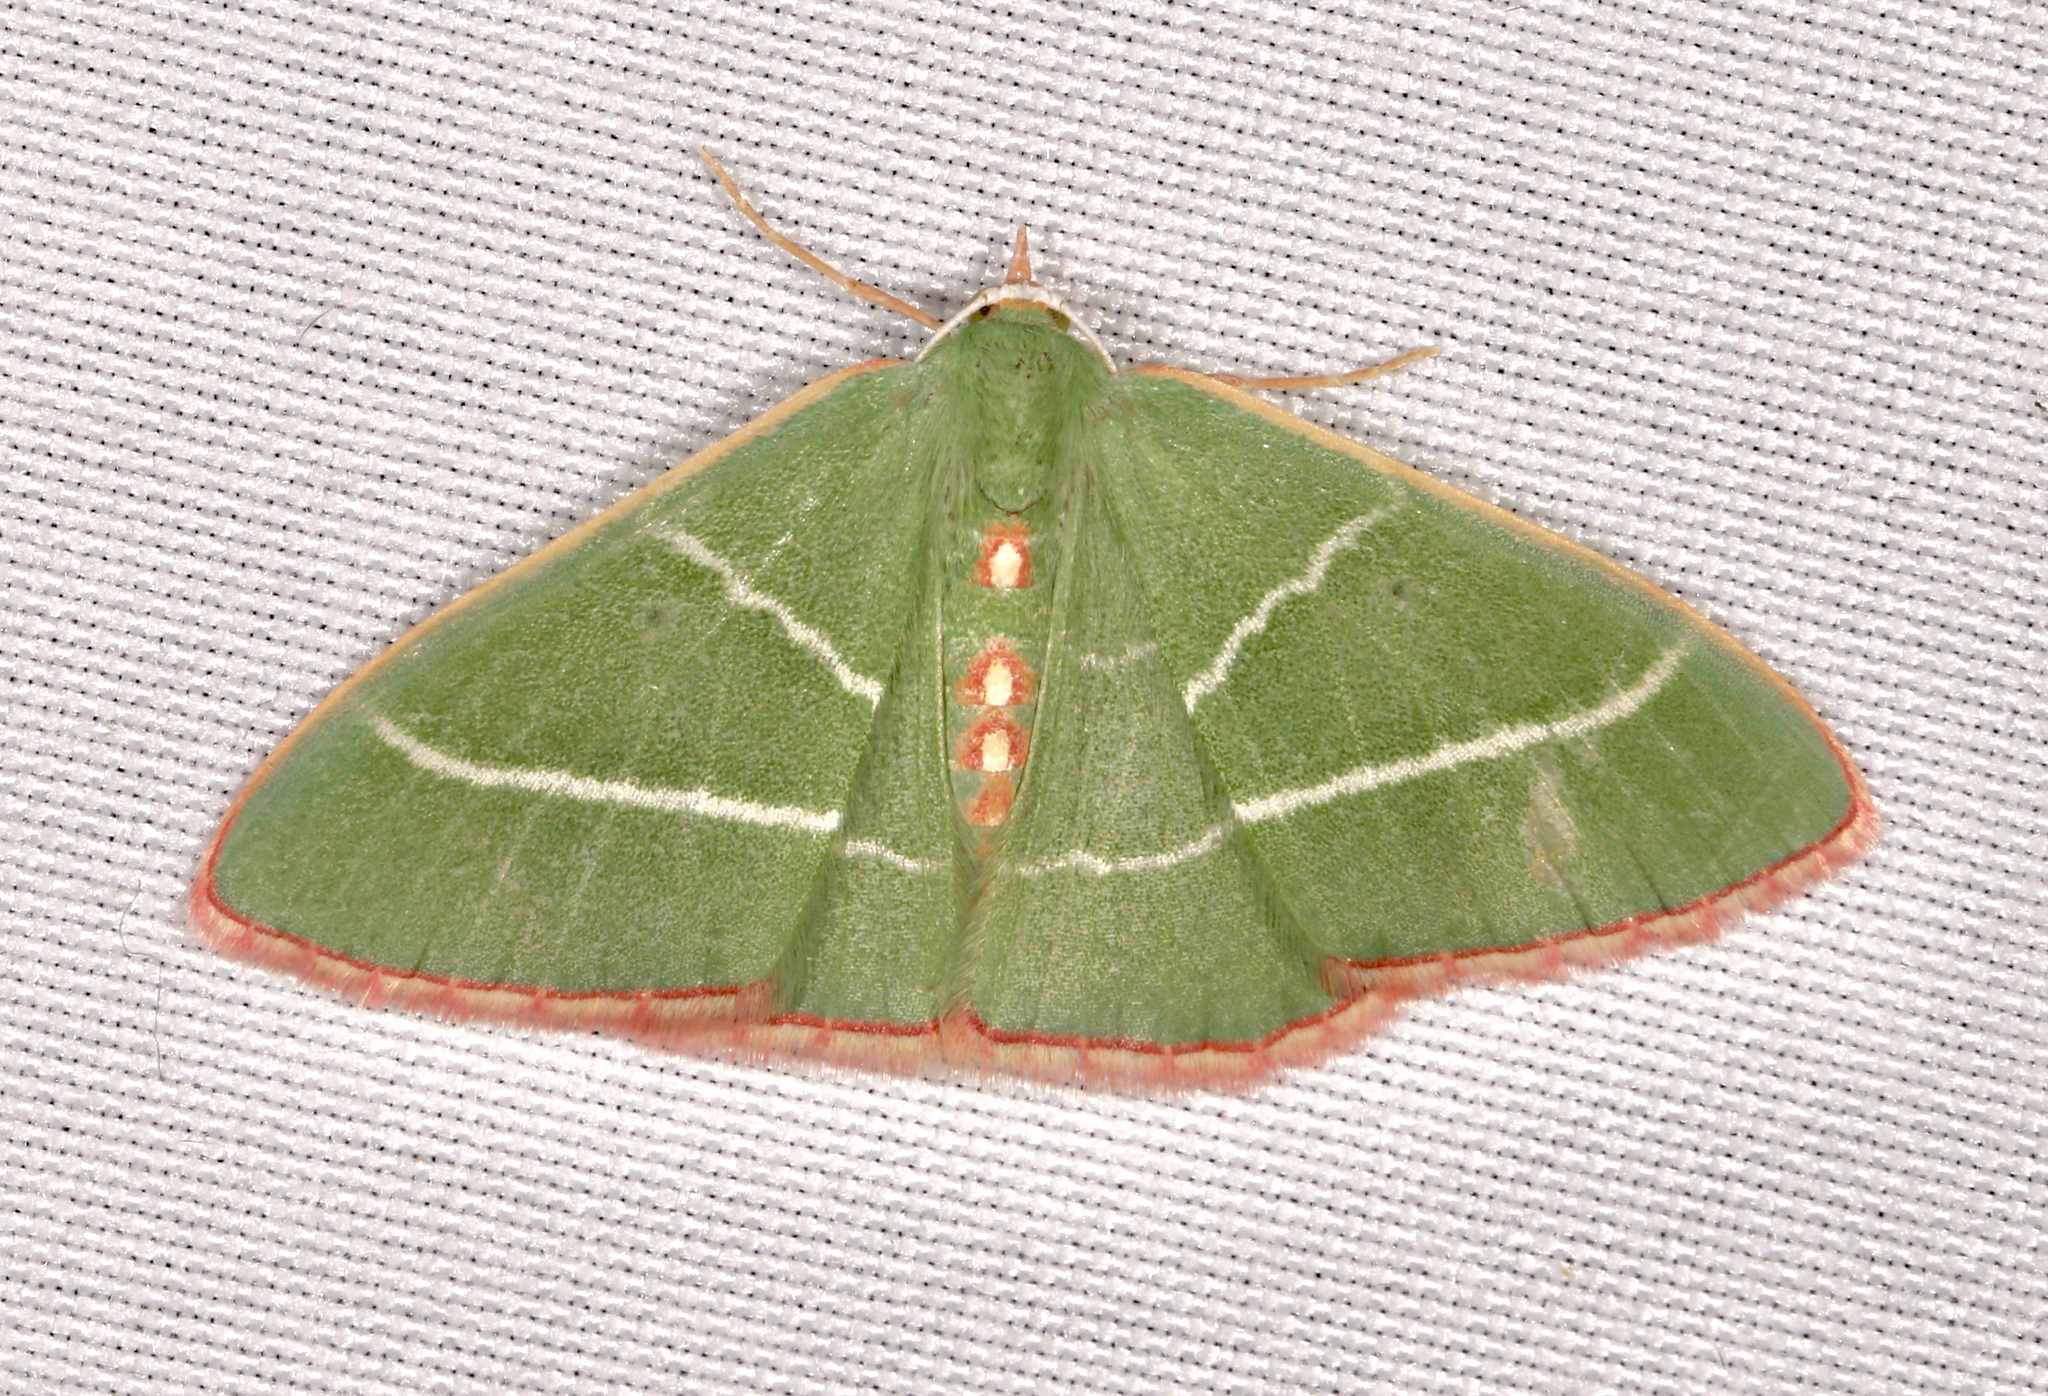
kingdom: Animalia
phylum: Arthropoda
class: Insecta
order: Lepidoptera
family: Geometridae
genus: Nemoria
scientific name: Nemoria obliqua
